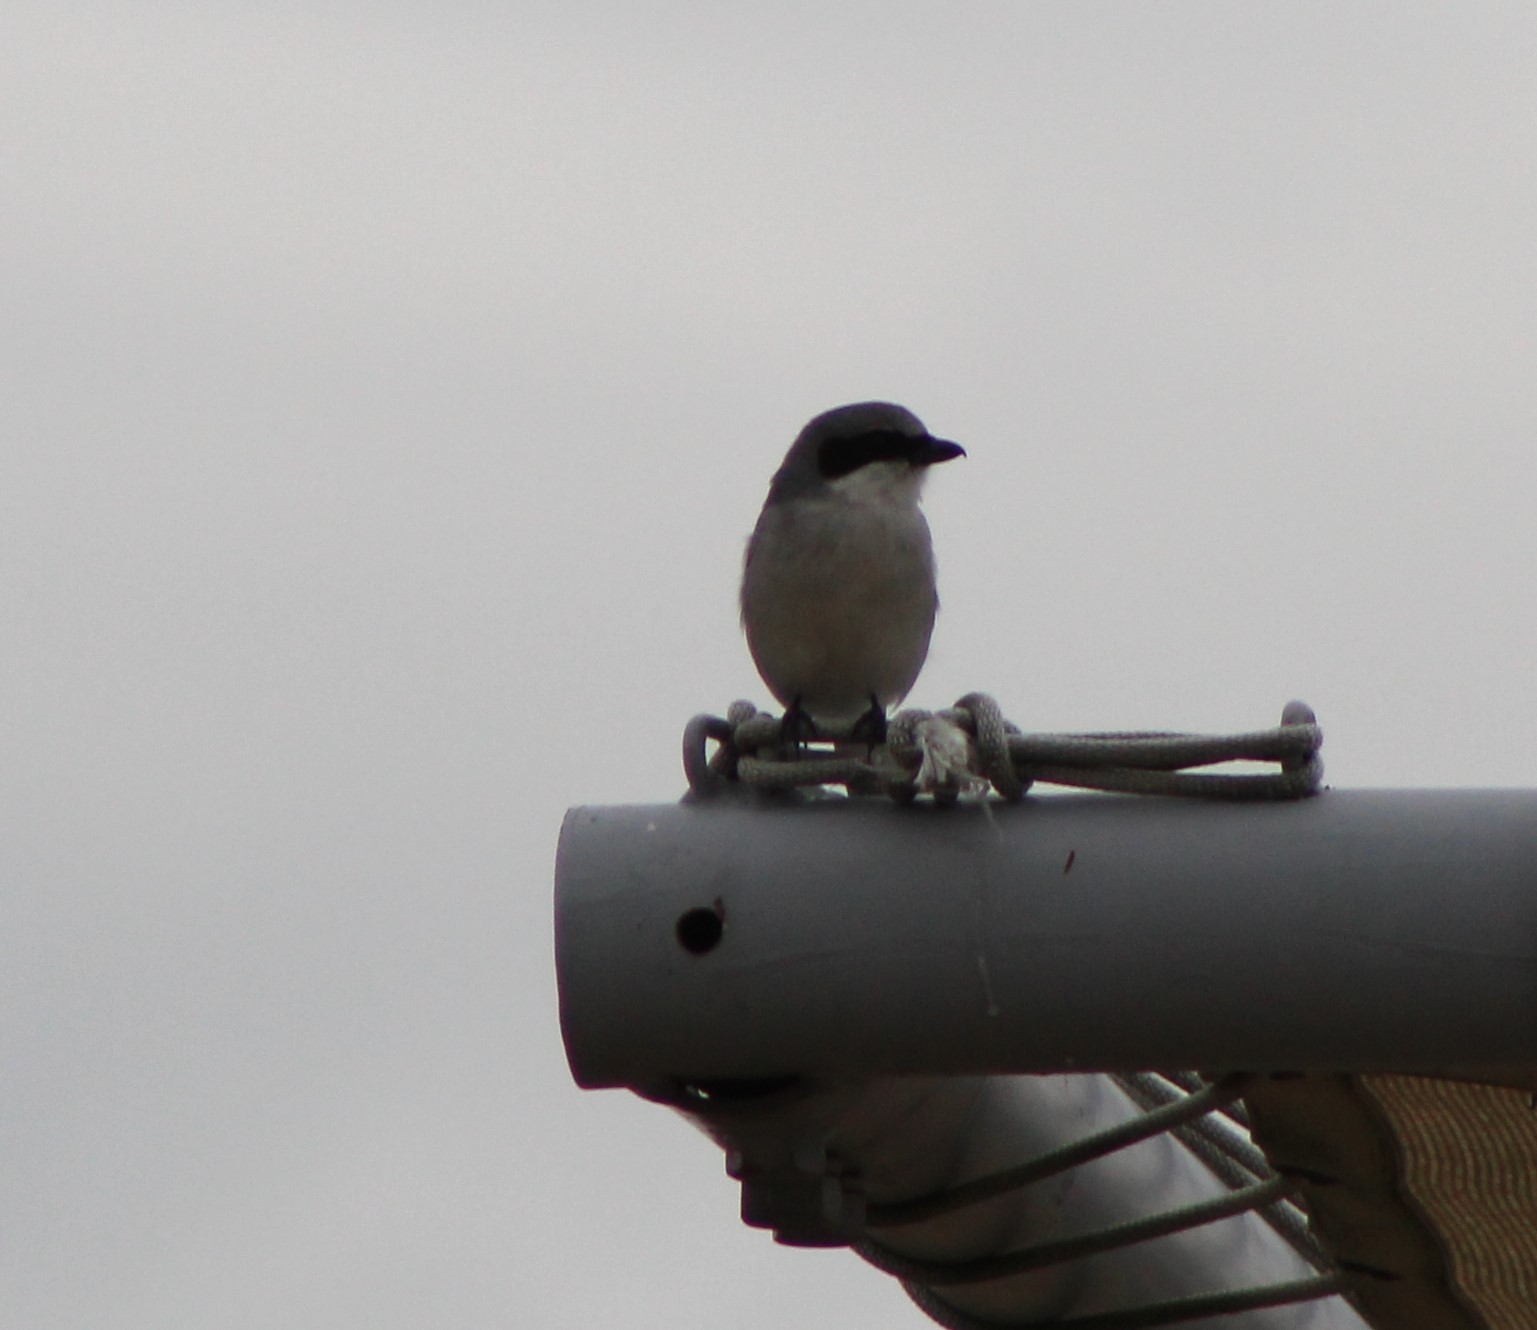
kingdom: Animalia
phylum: Chordata
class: Aves
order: Passeriformes
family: Laniidae
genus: Lanius
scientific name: Lanius ludovicianus
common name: Loggerhead shrike
